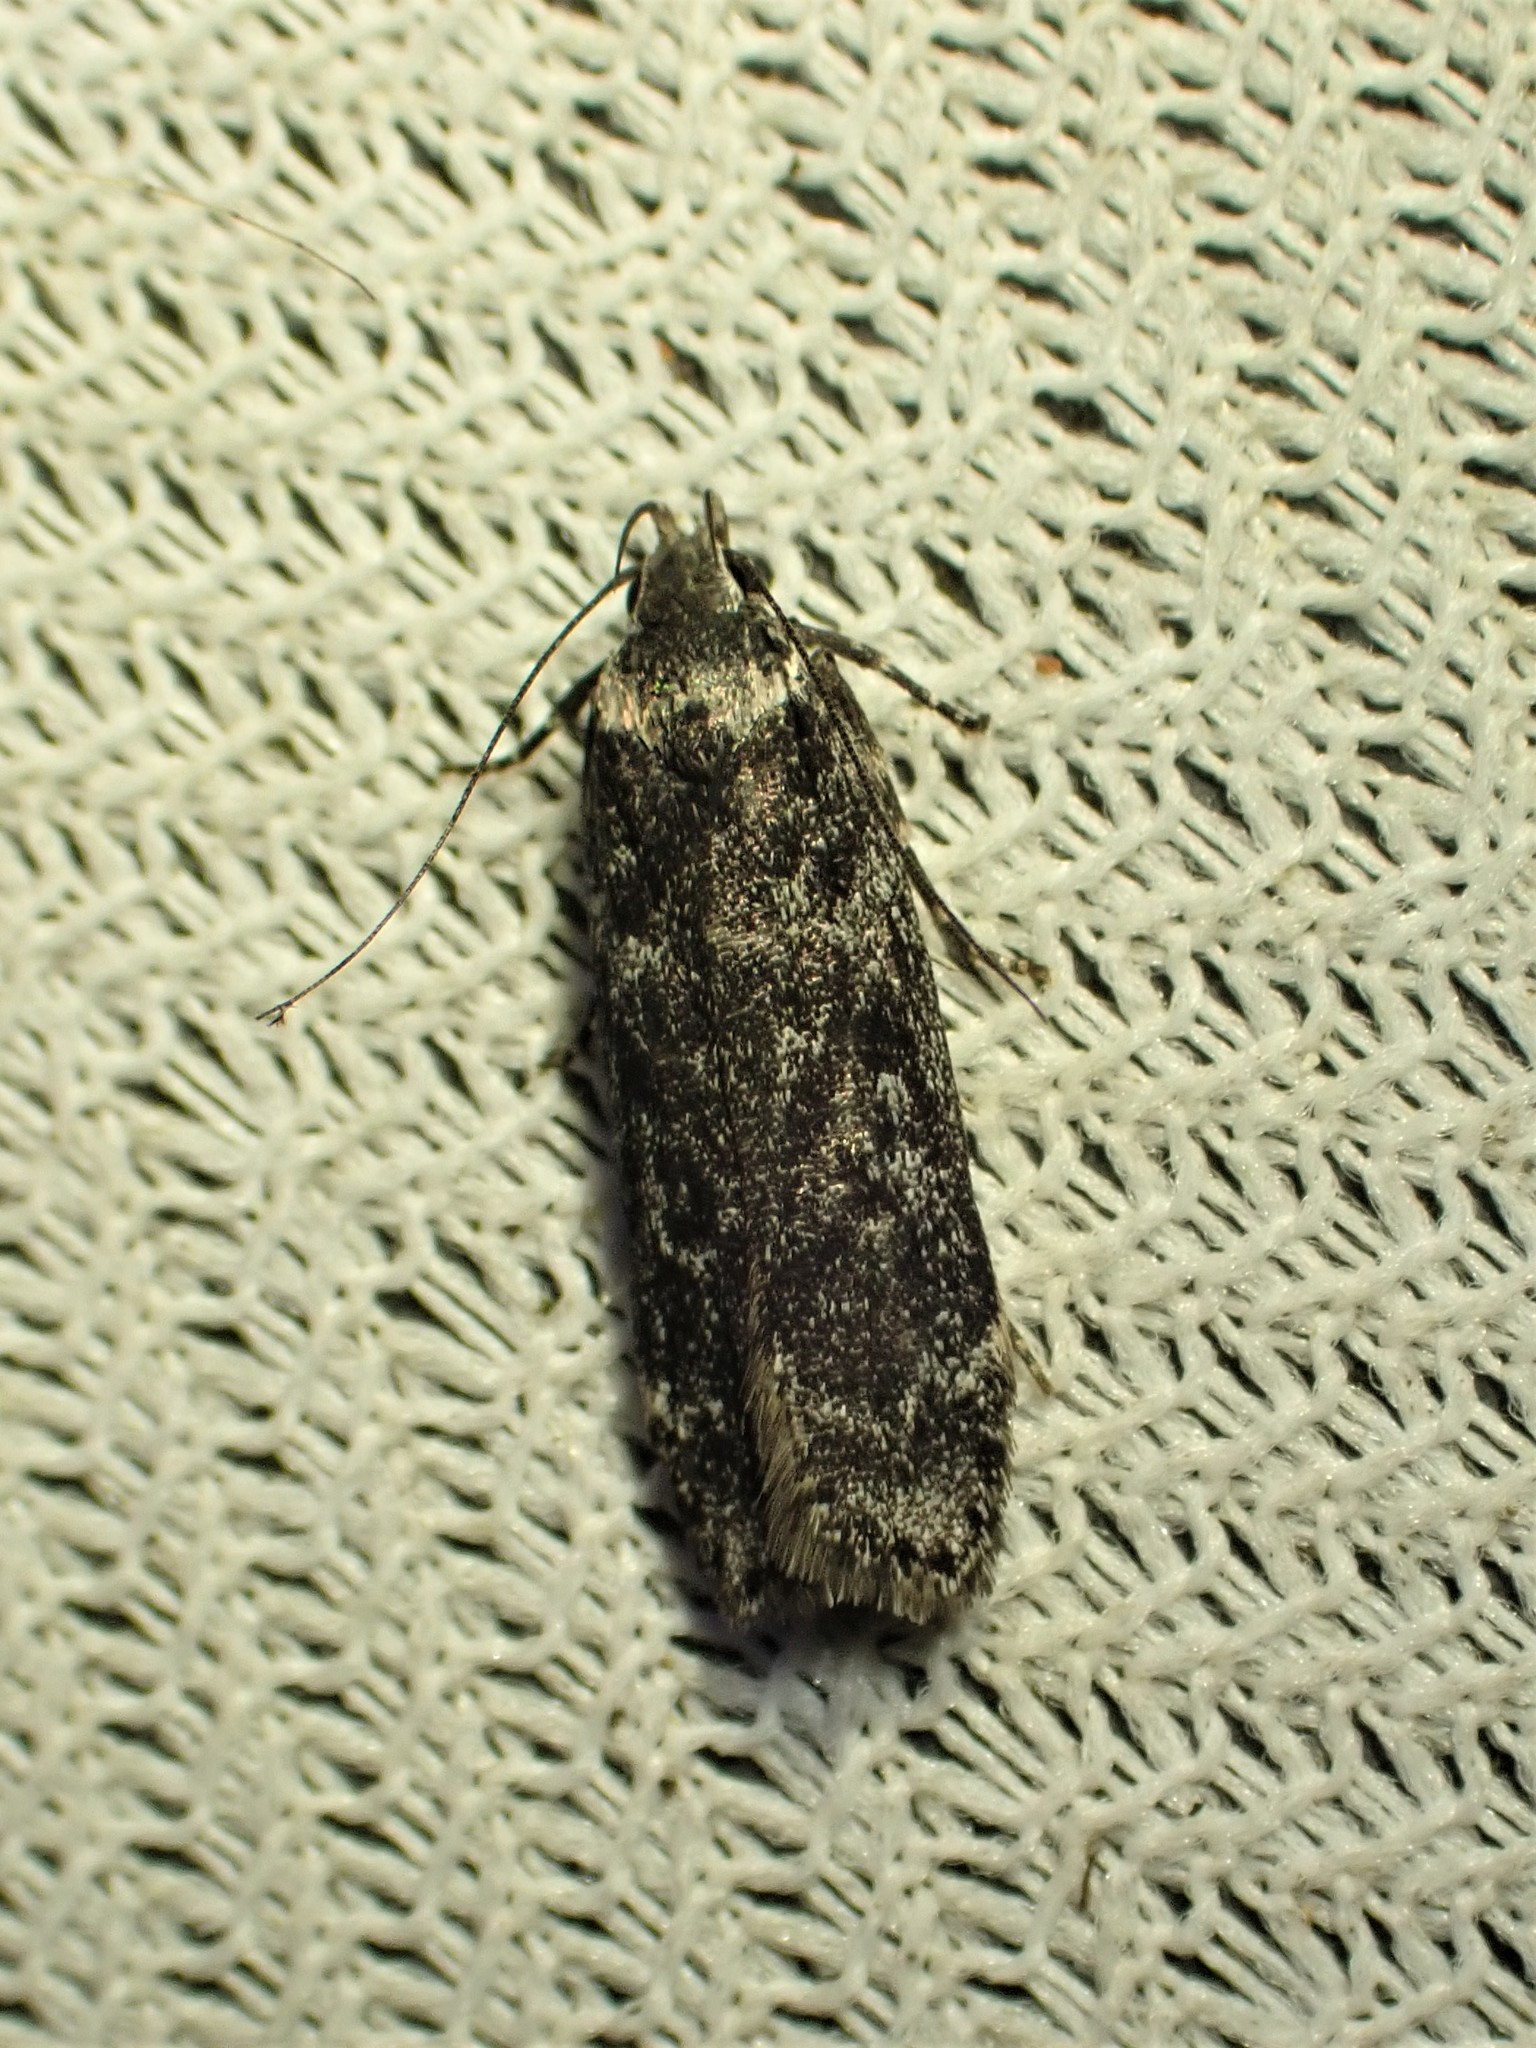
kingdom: Animalia
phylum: Arthropoda
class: Insecta
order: Lepidoptera
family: Gelechiidae
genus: Anacampsis
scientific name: Anacampsis niveopulvella
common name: Pale-headed aspen leafroller moth
